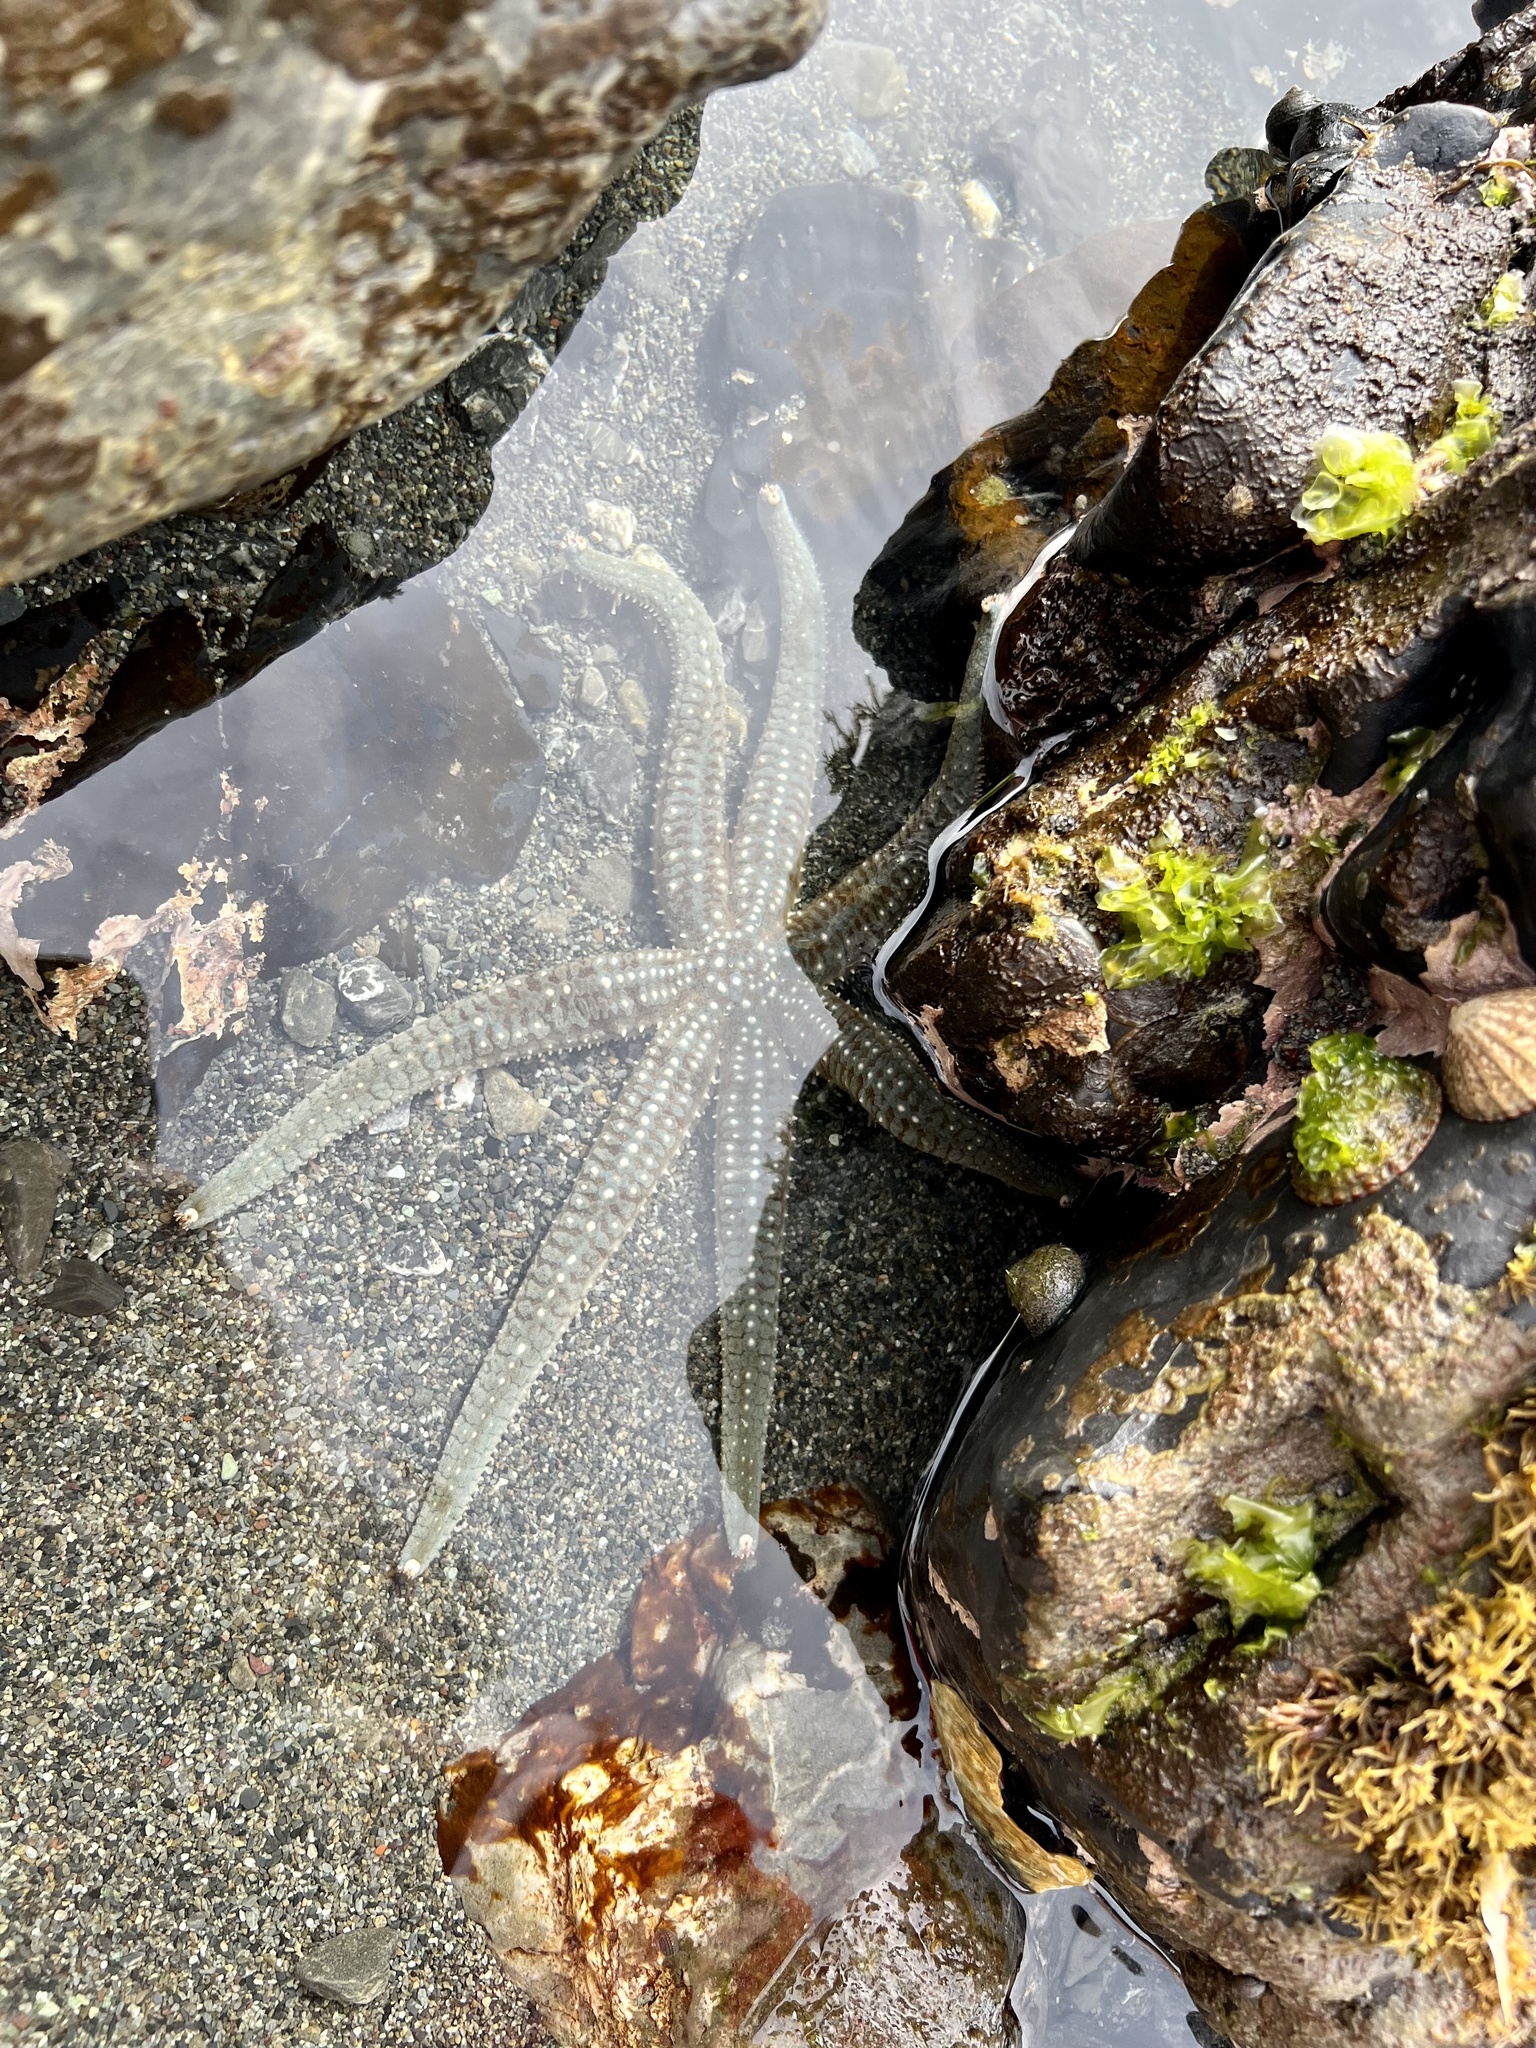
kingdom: Animalia
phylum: Echinodermata
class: Asteroidea
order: Forcipulatida
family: Asteriidae
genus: Astrostole
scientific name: Astrostole scabra
